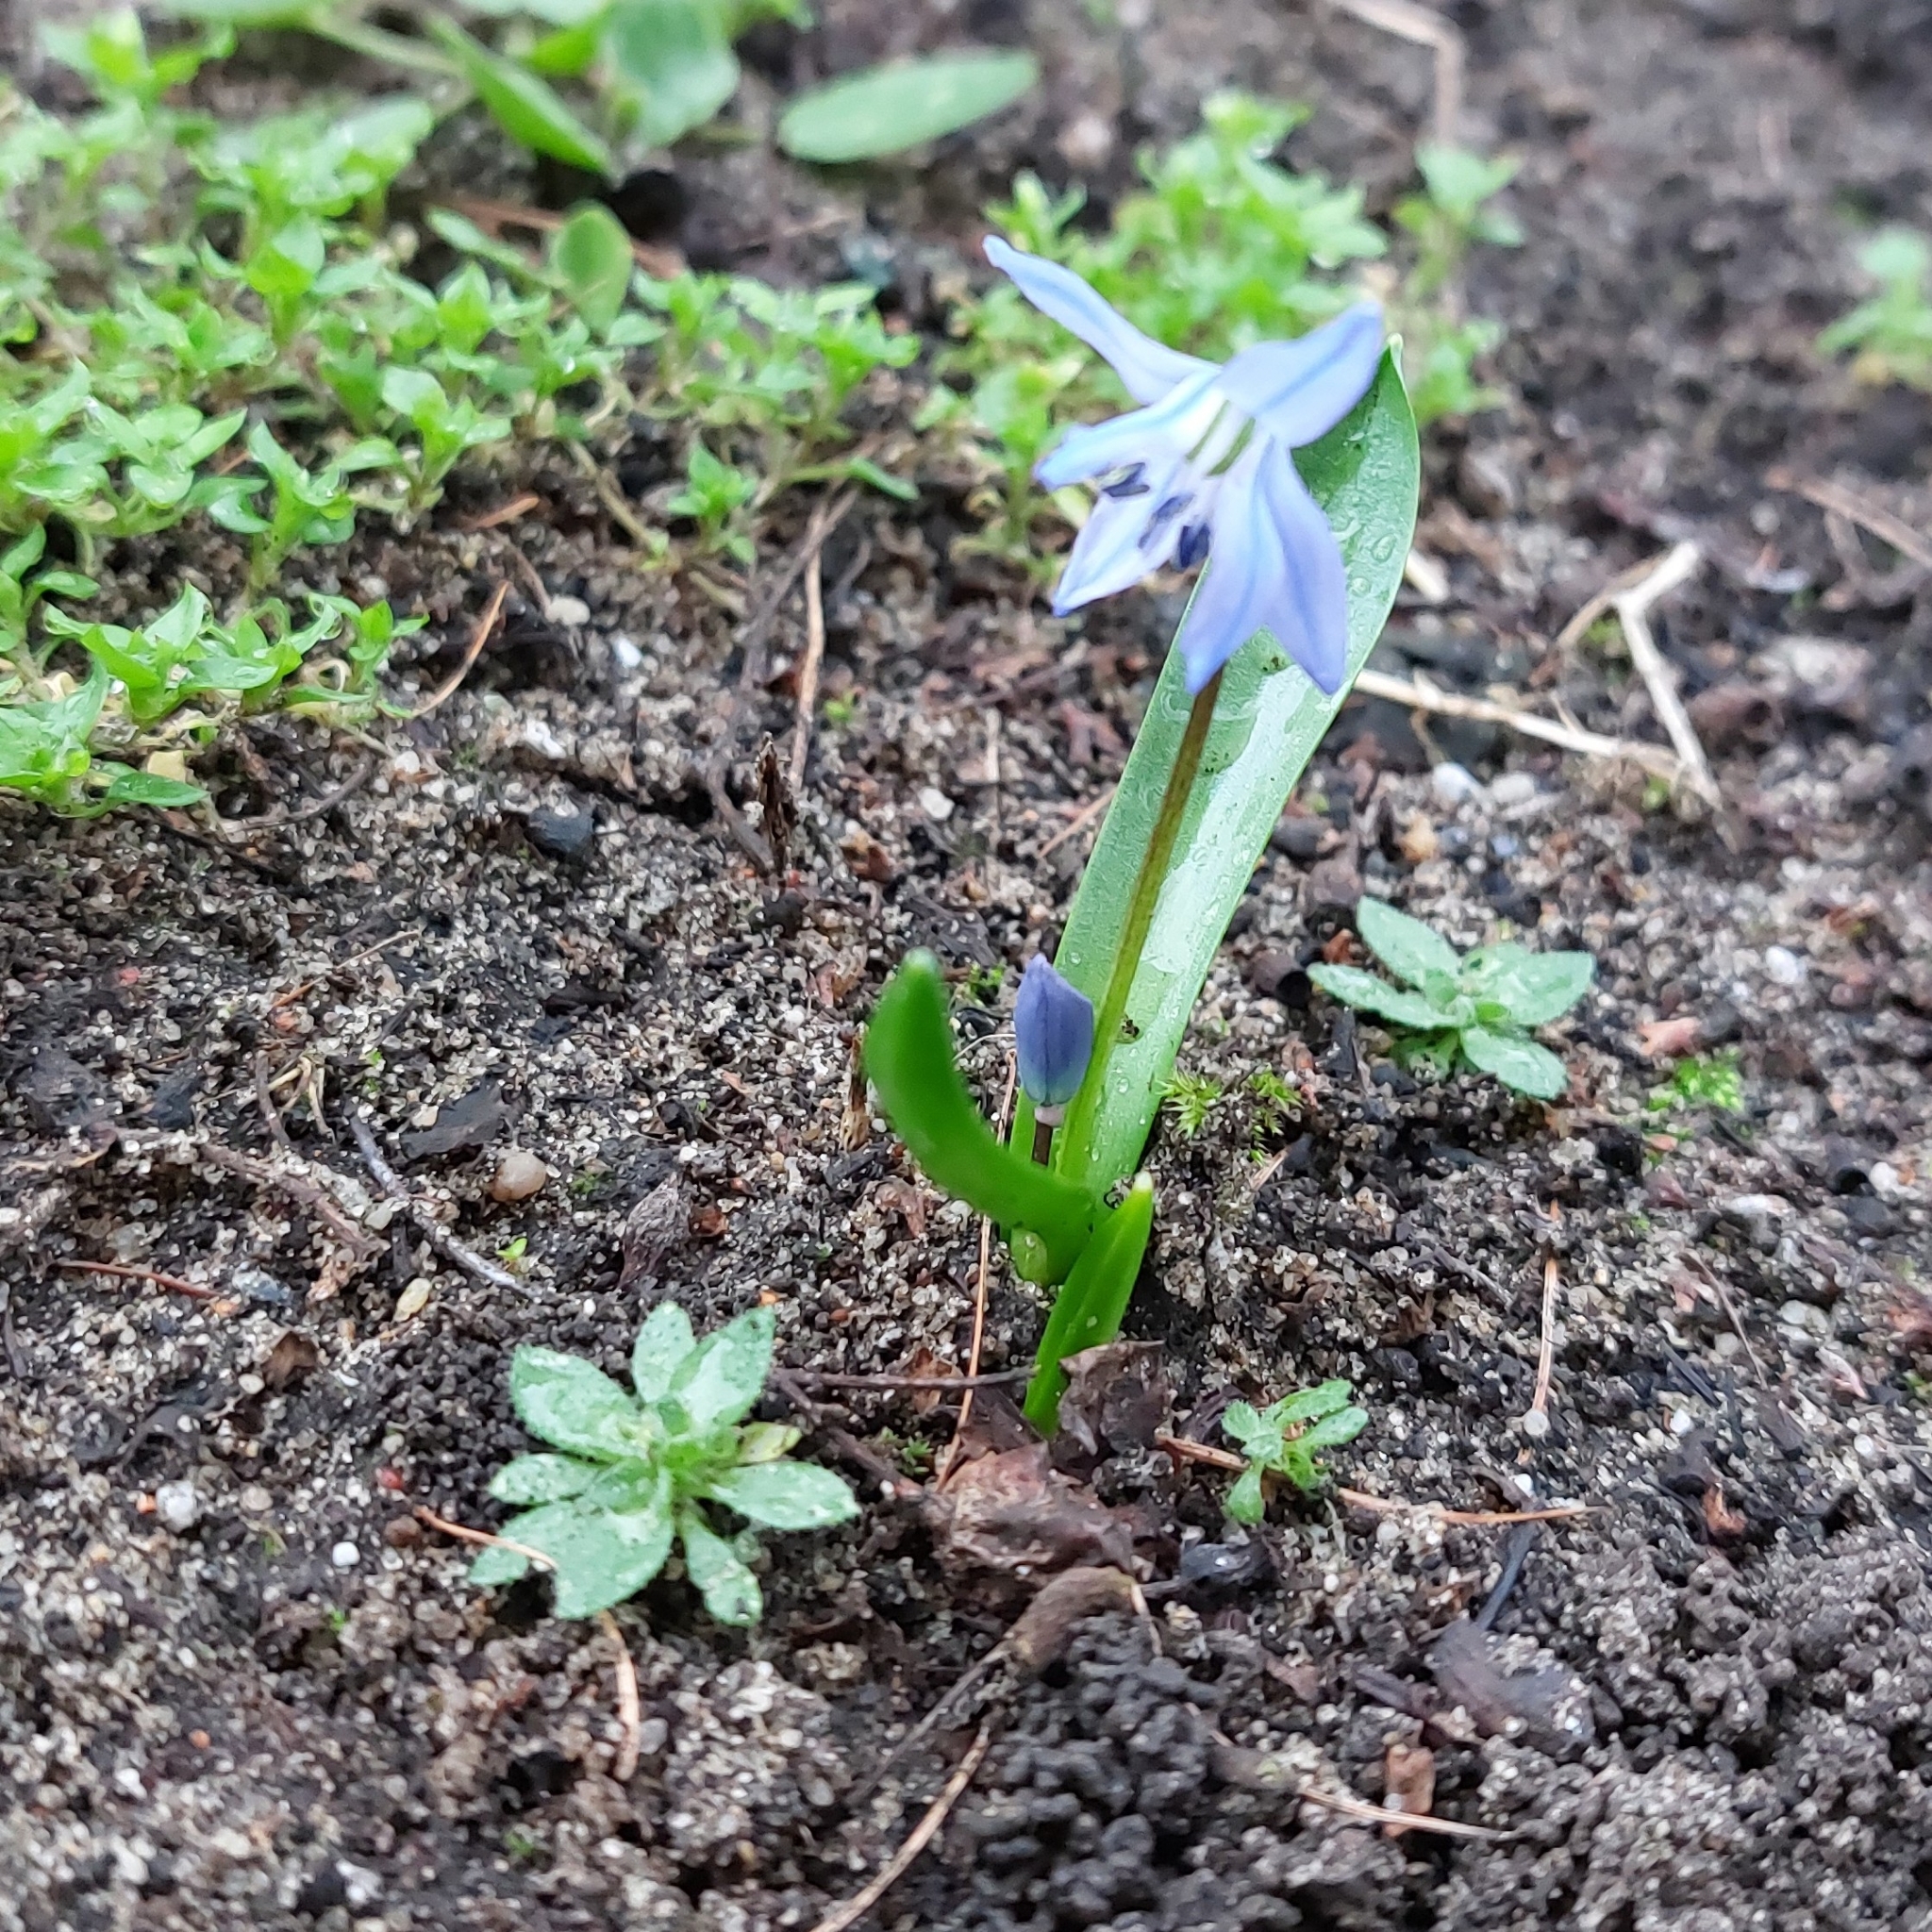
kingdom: Plantae
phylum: Tracheophyta
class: Liliopsida
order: Asparagales
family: Asparagaceae
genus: Scilla
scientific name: Scilla siberica
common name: Siberian squill
